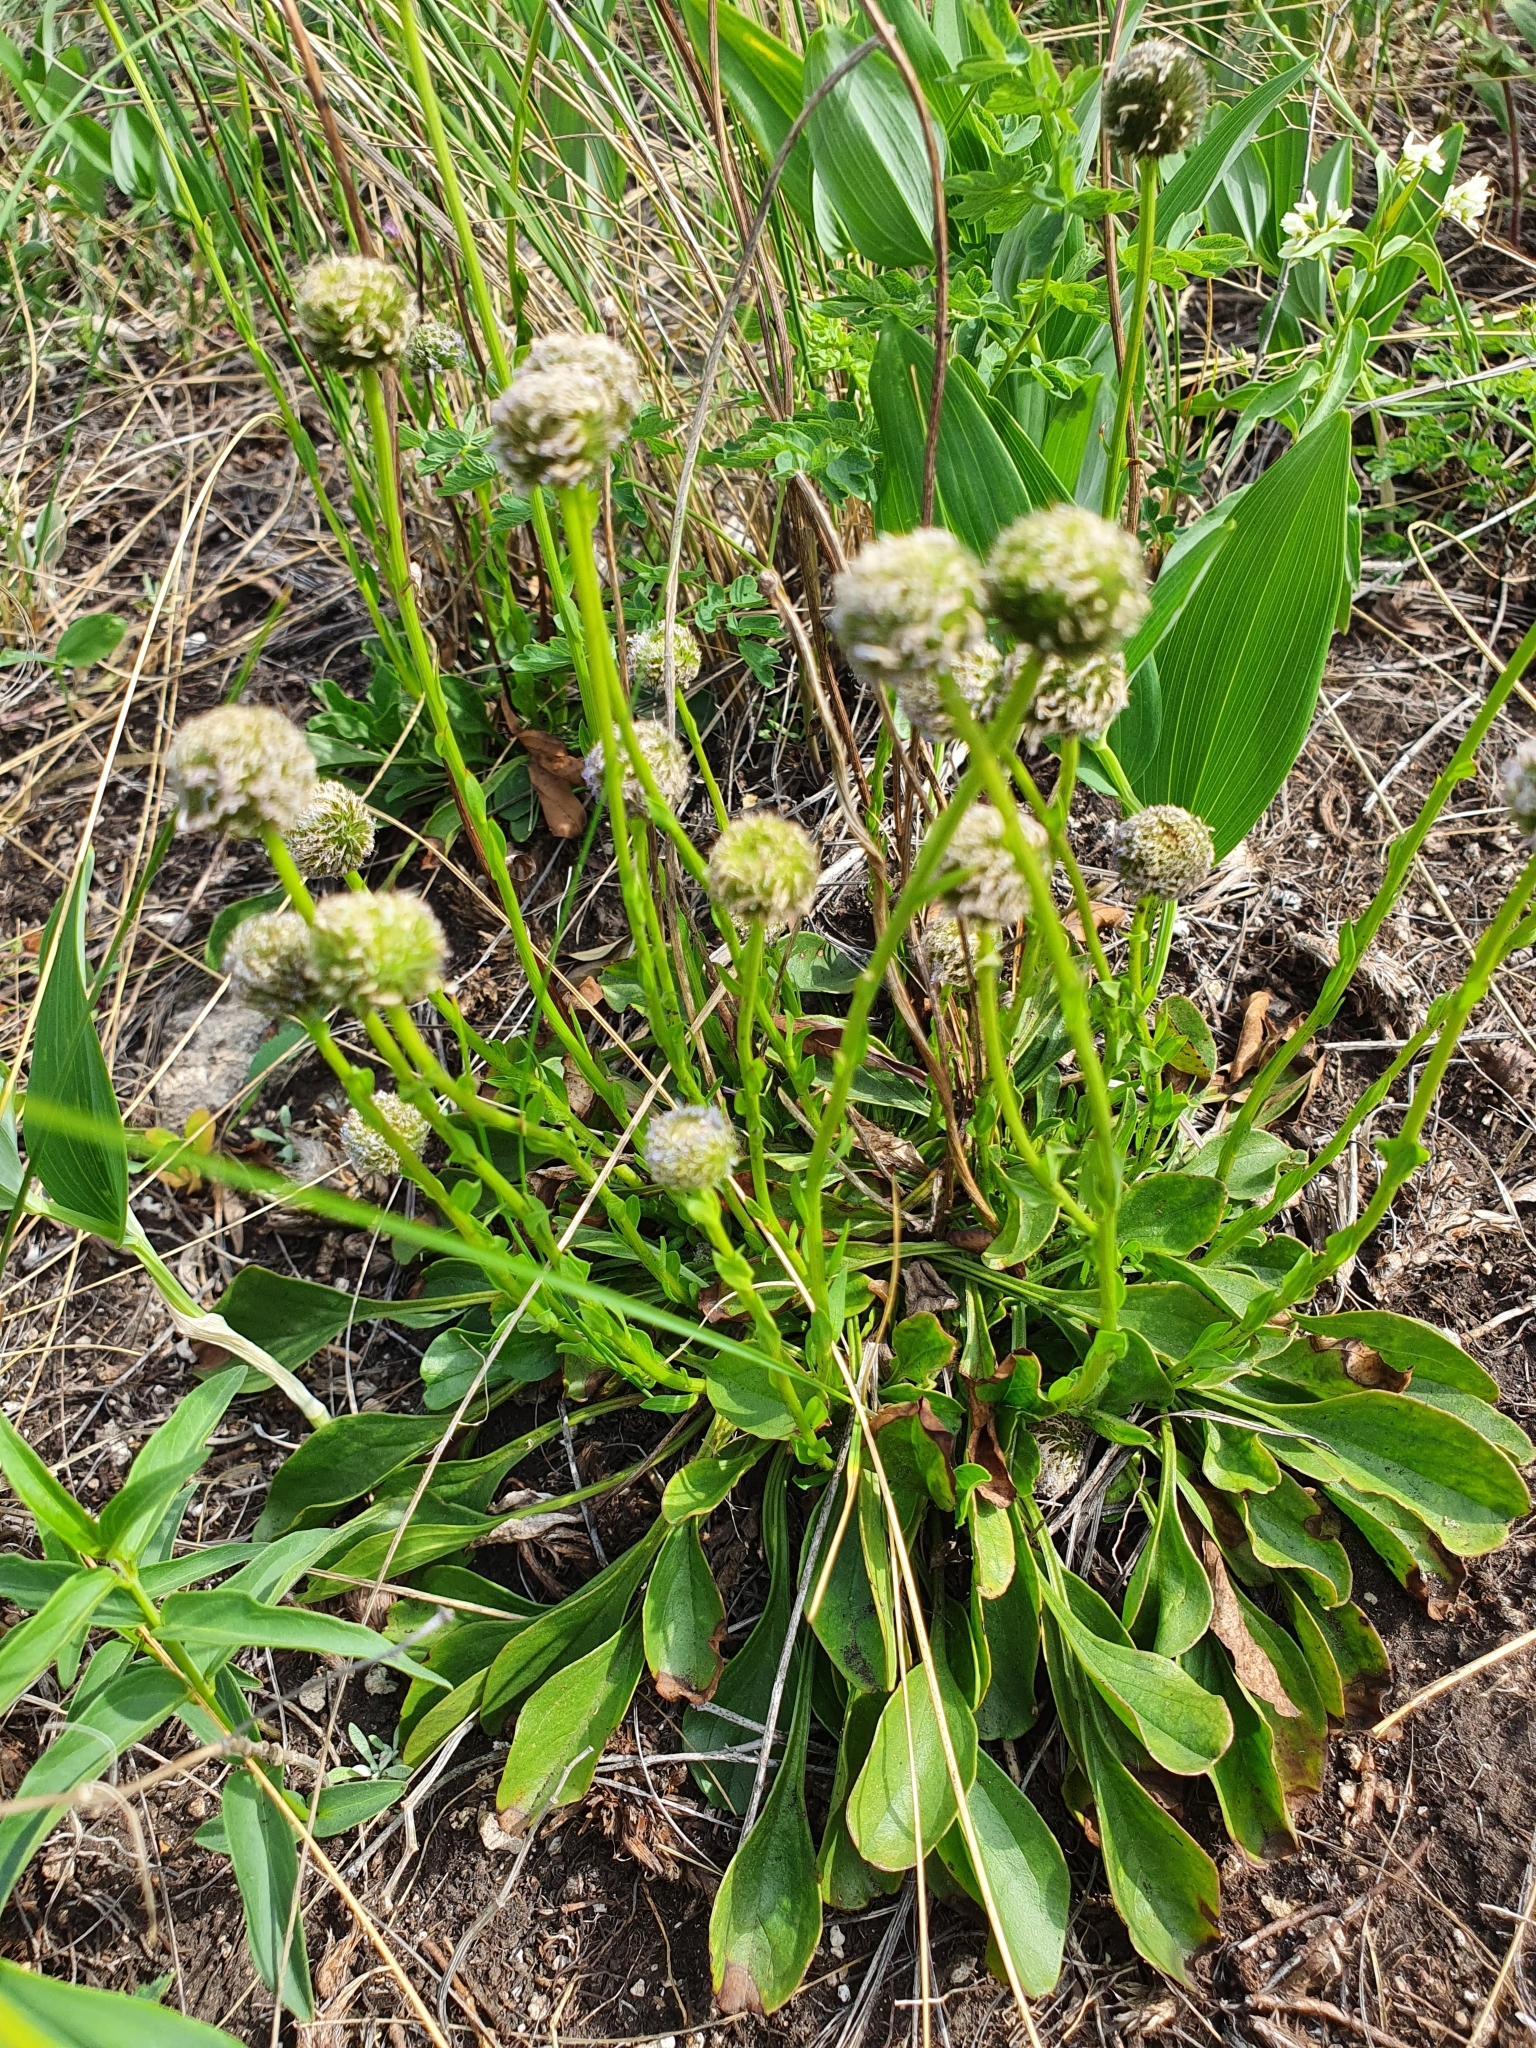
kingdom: Plantae
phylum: Tracheophyta
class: Magnoliopsida
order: Lamiales
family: Plantaginaceae
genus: Globularia
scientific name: Globularia bisnagarica
